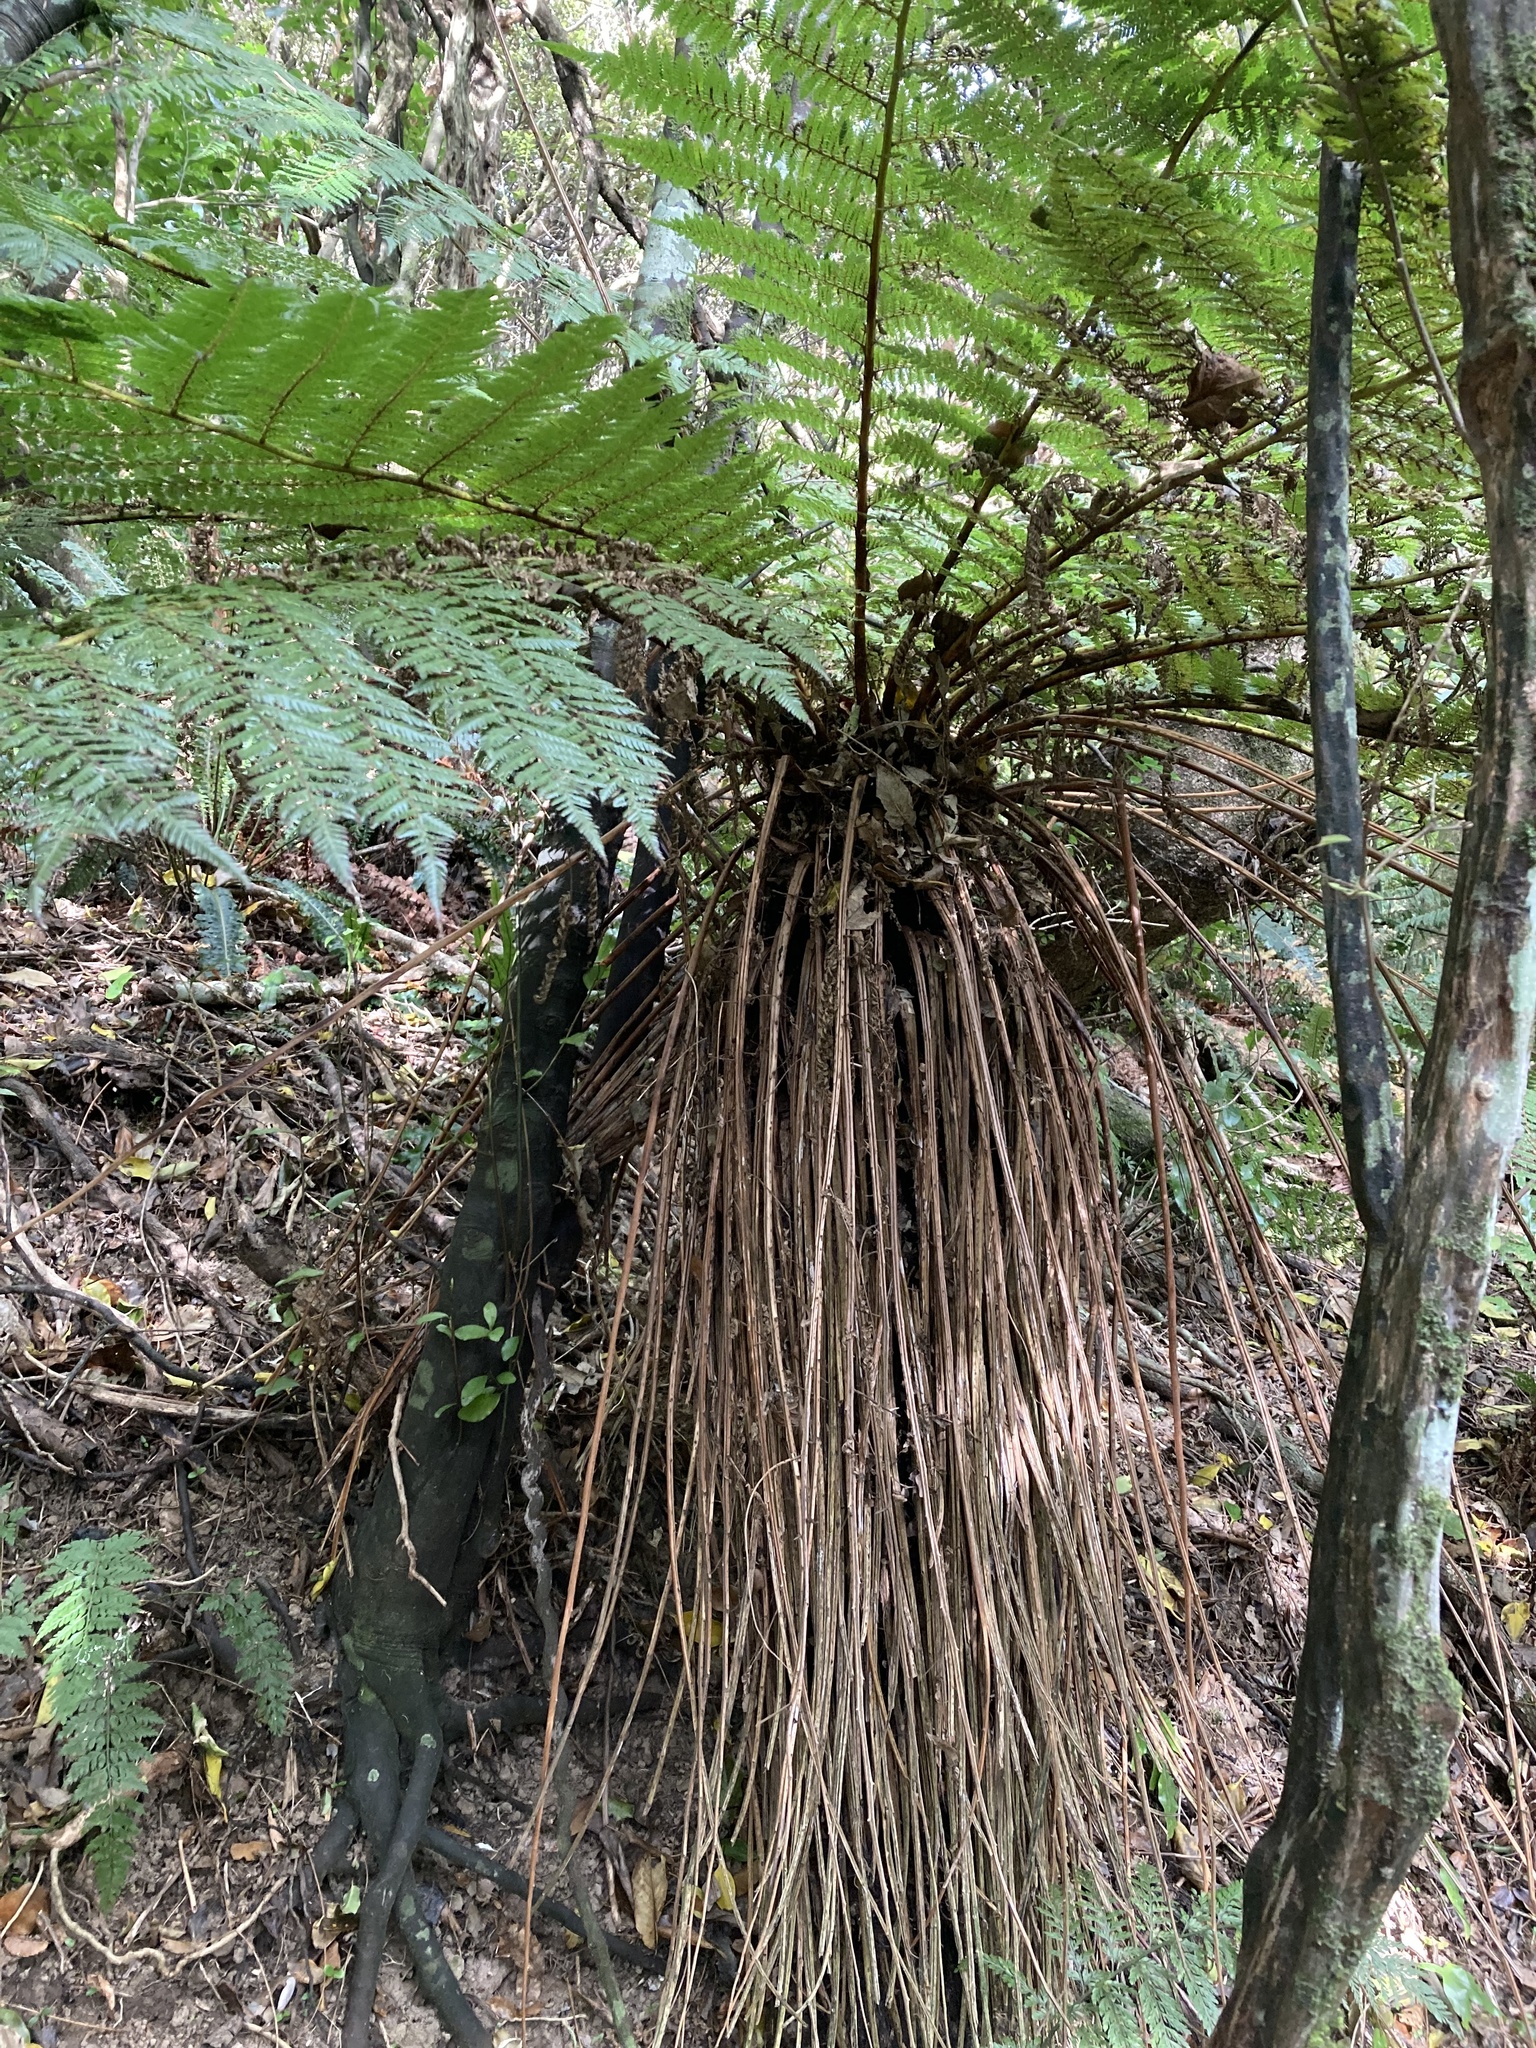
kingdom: Plantae
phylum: Tracheophyta
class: Polypodiopsida
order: Cyatheales
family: Cyatheaceae
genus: Alsophila
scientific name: Alsophila smithii
